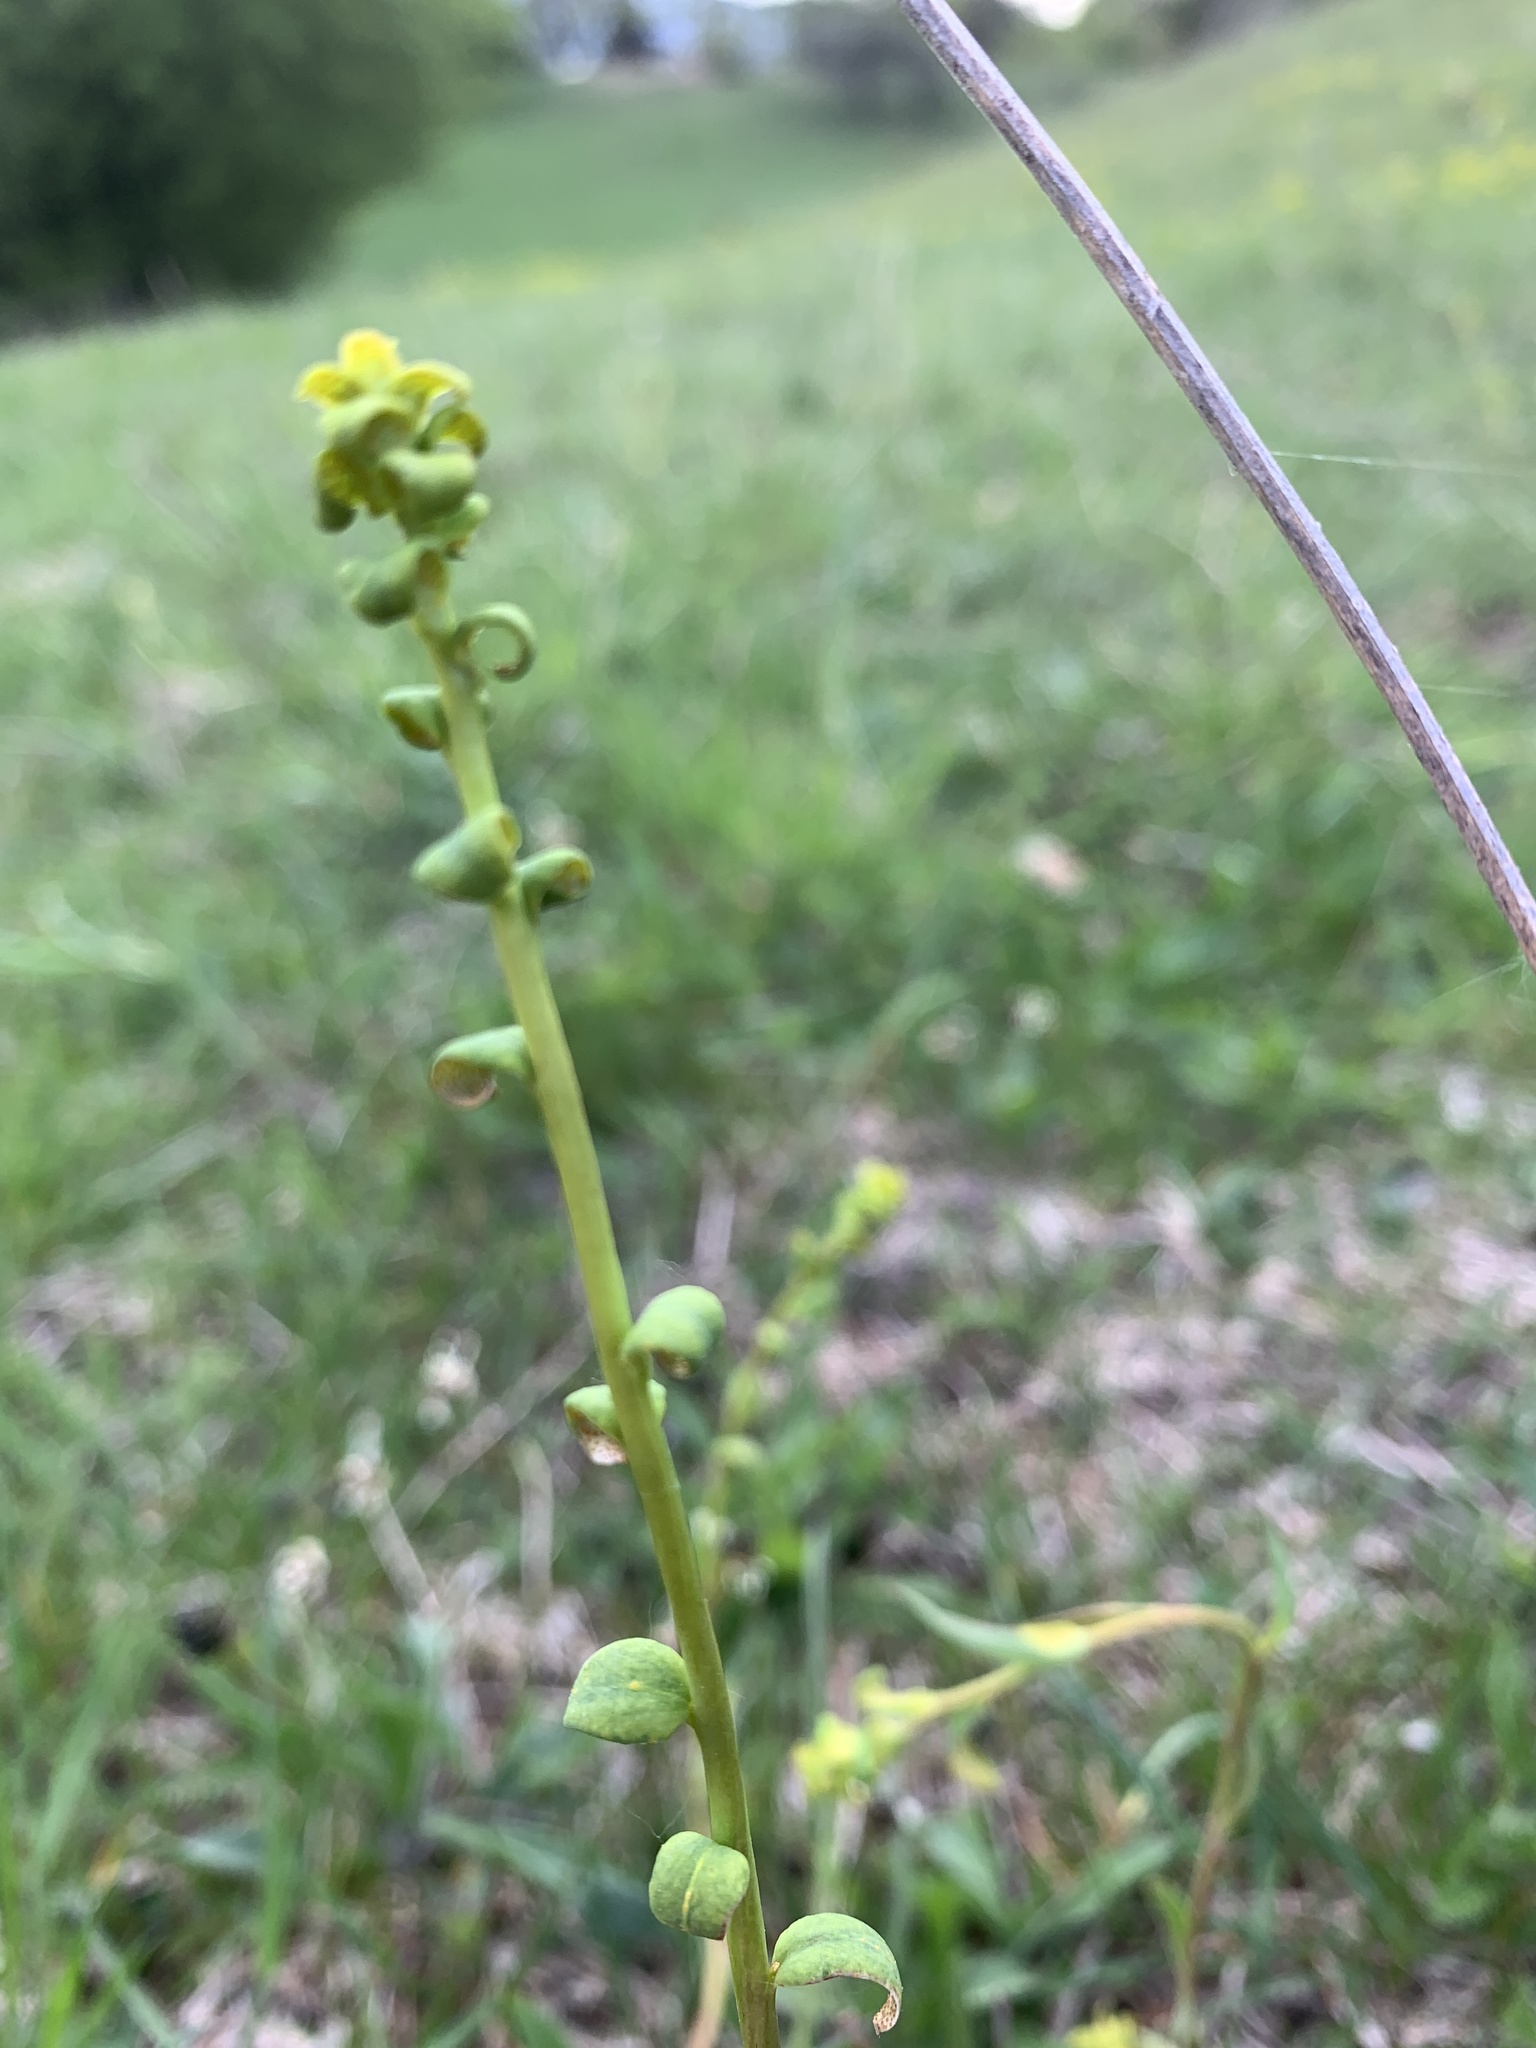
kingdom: Plantae
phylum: Tracheophyta
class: Magnoliopsida
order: Malpighiales
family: Euphorbiaceae
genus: Euphorbia
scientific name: Euphorbia cyparissias
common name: Cypress spurge
